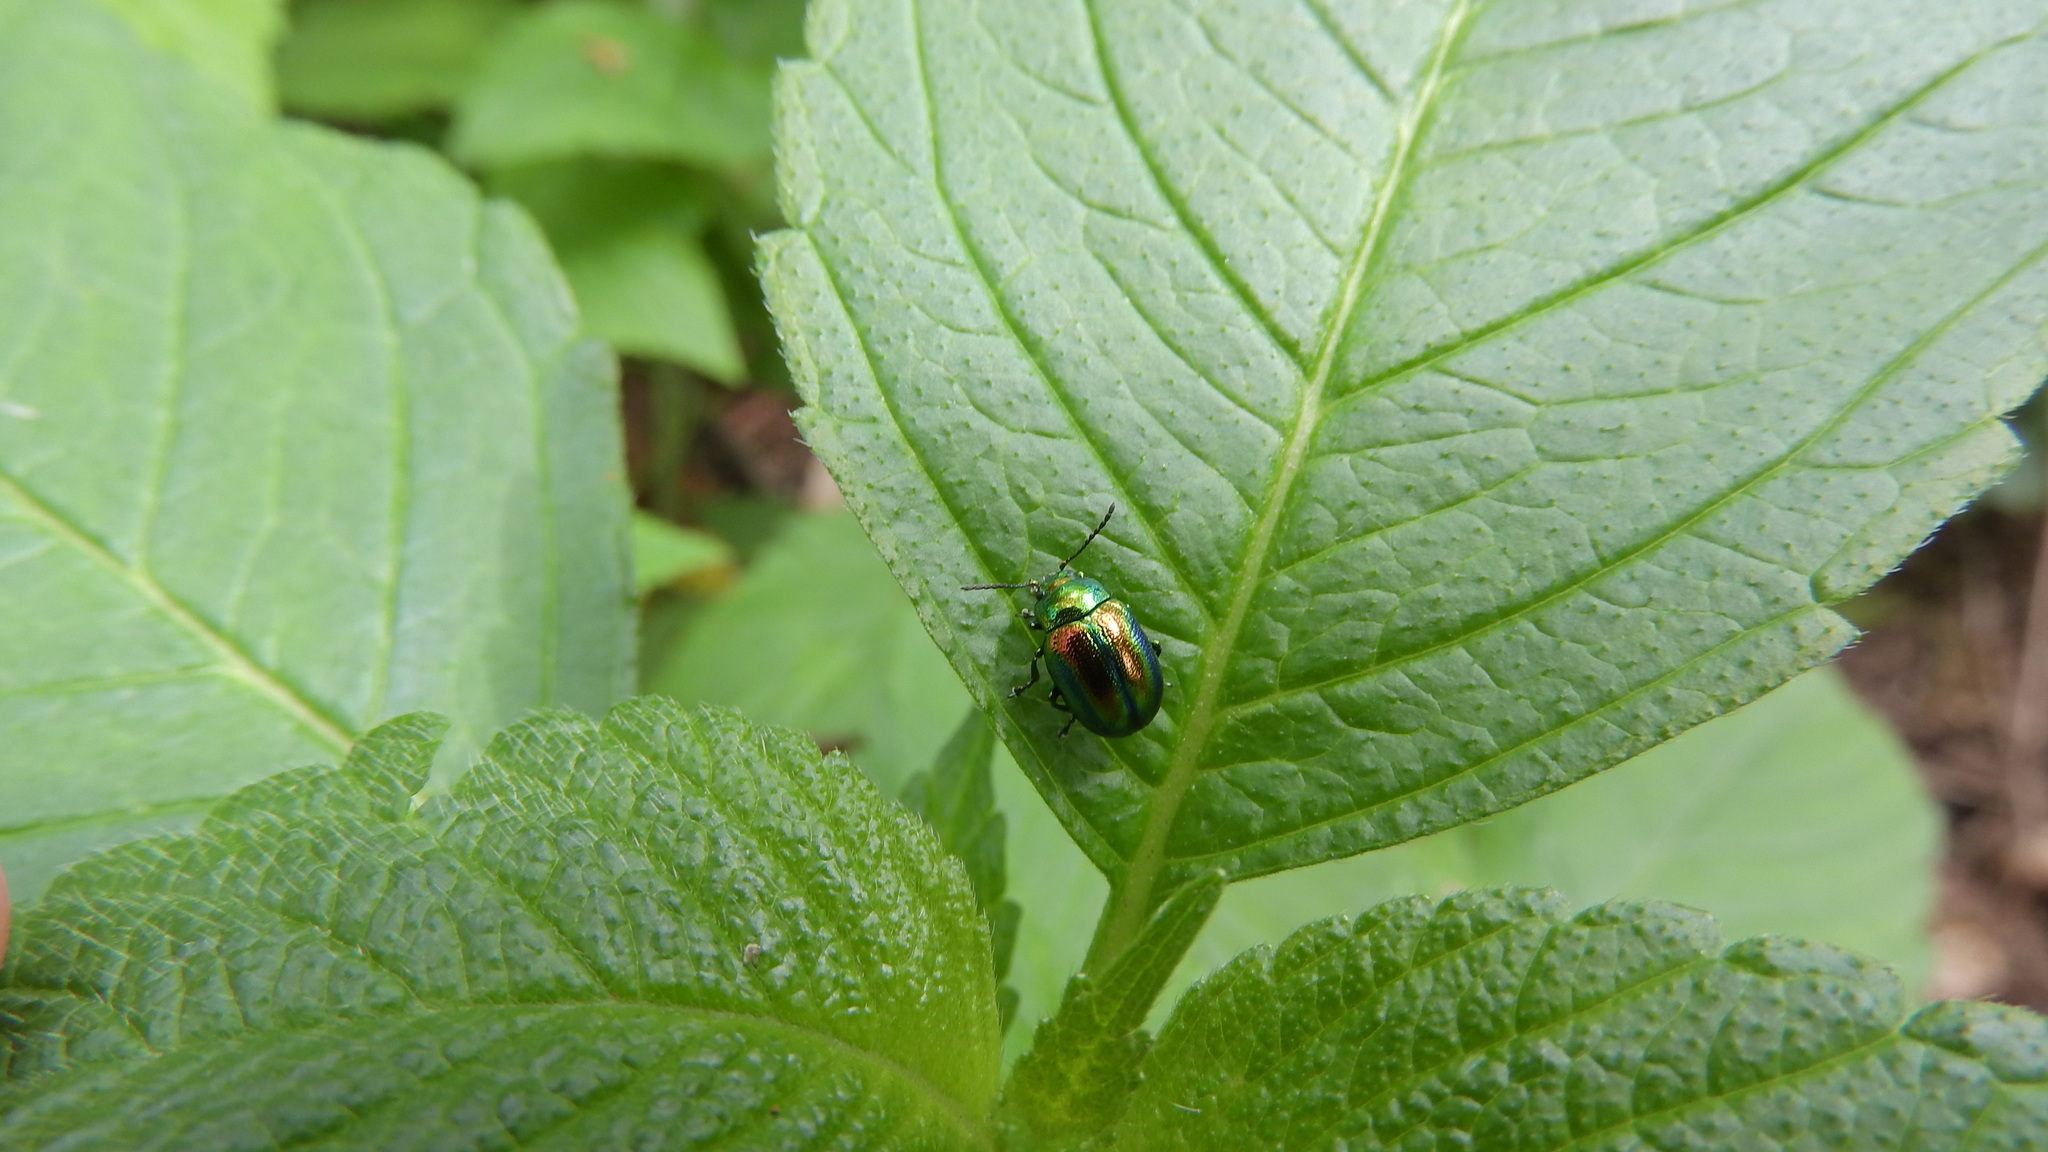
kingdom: Animalia
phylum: Arthropoda
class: Insecta
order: Coleoptera
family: Chrysomelidae
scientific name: Chrysomelidae
